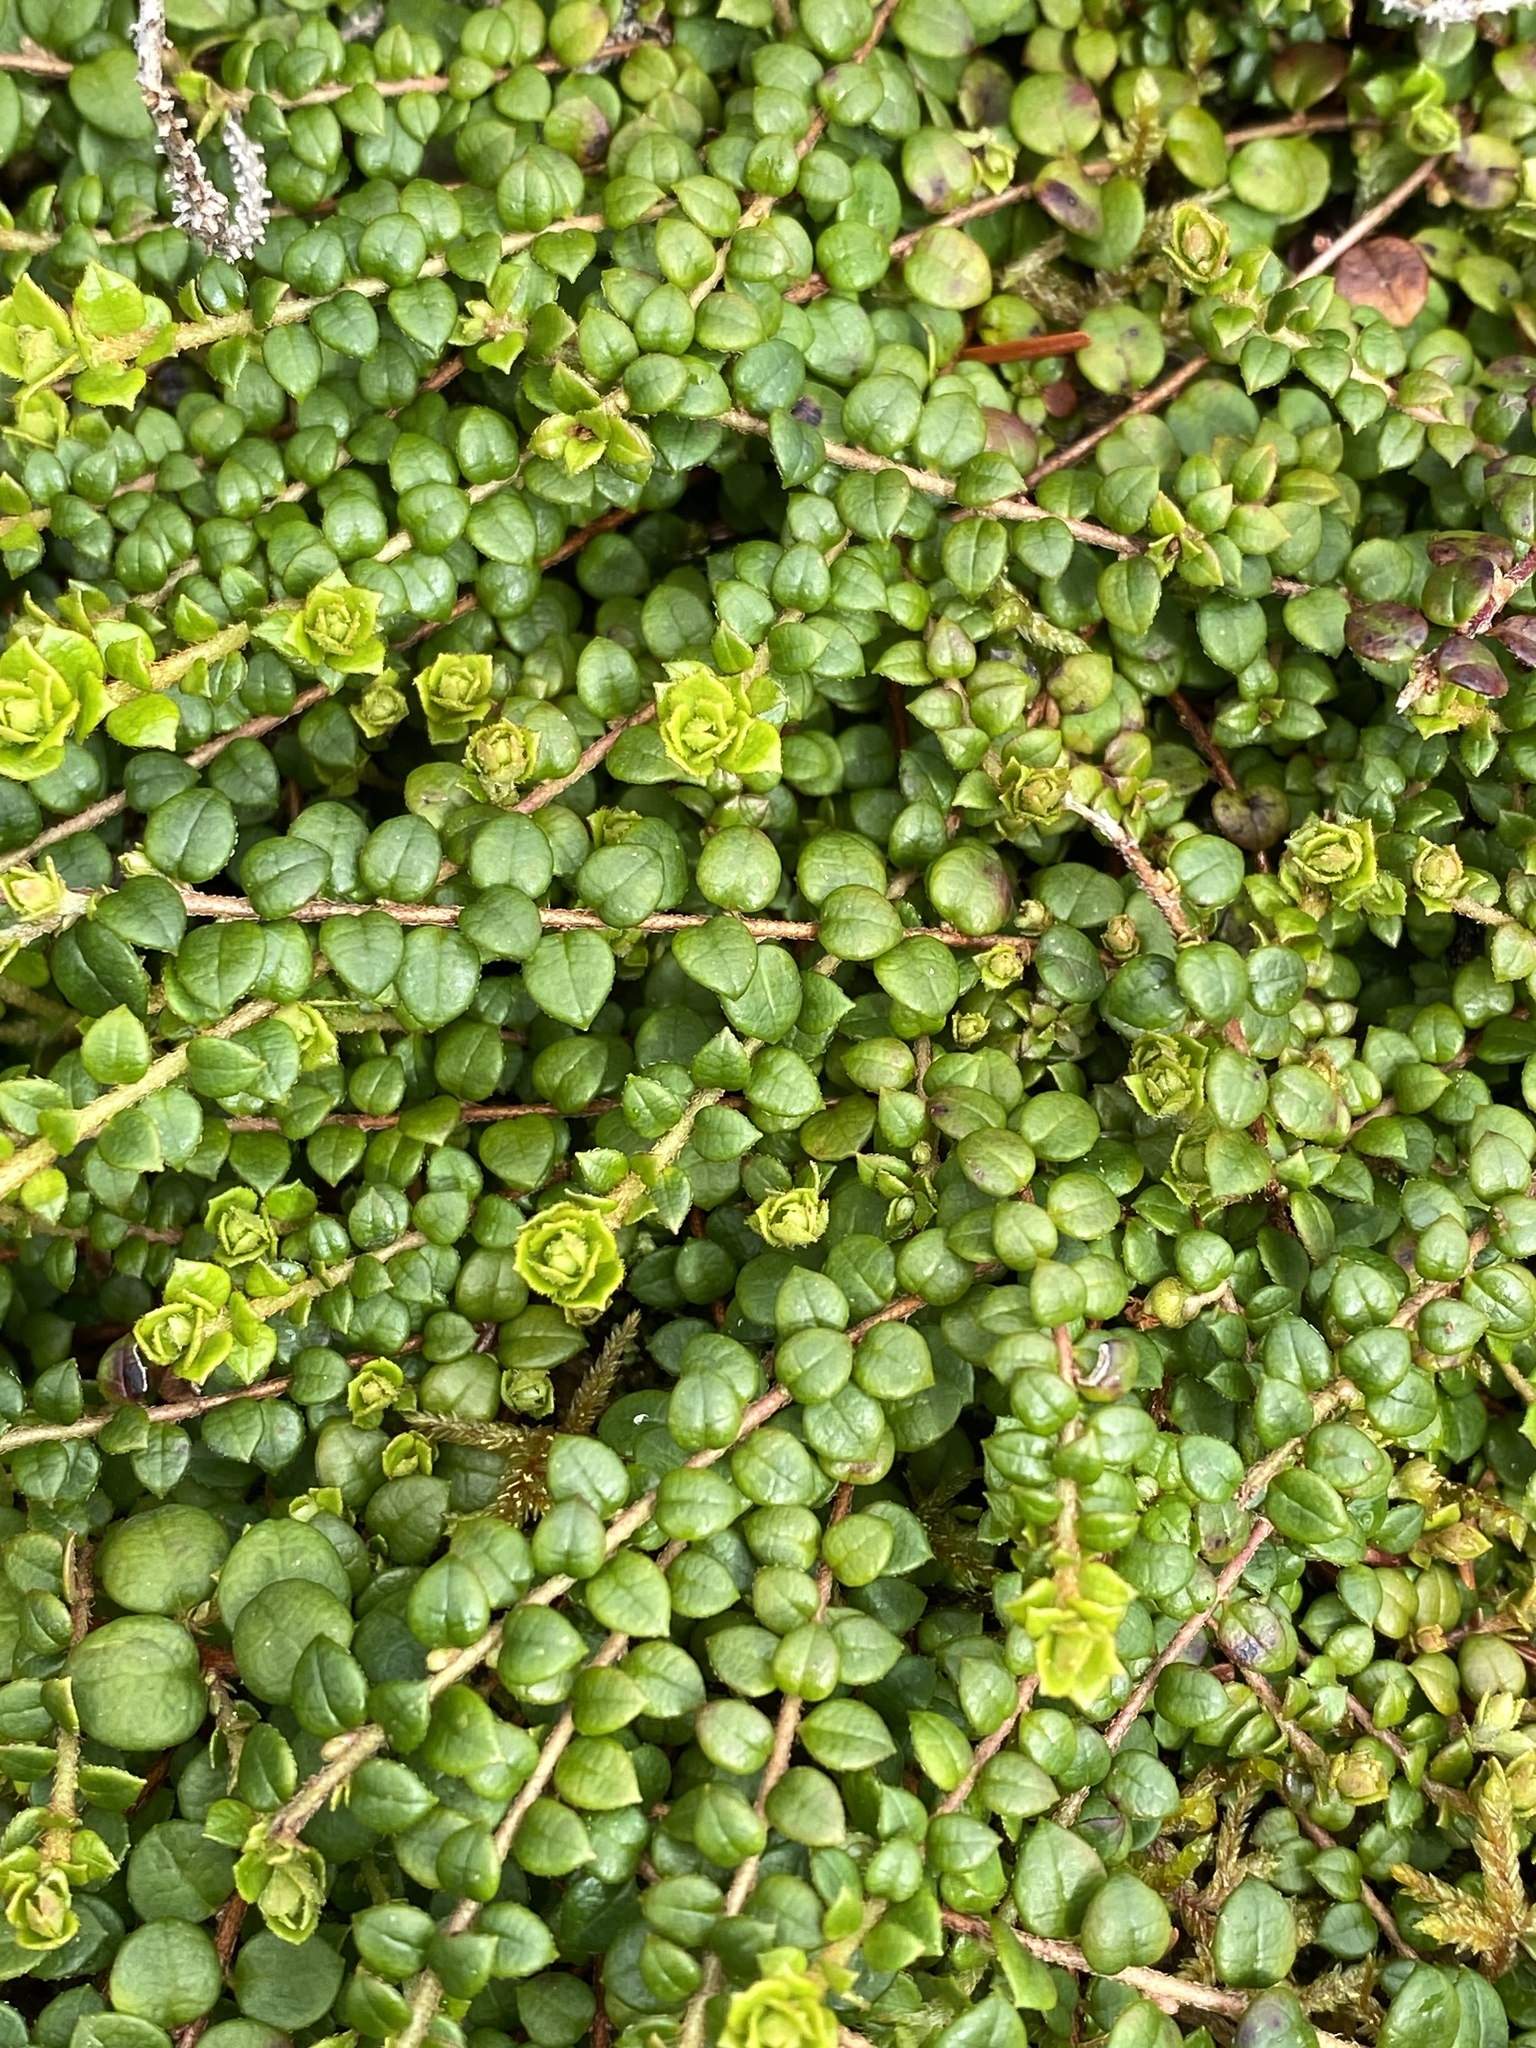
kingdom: Plantae
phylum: Tracheophyta
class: Magnoliopsida
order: Ericales
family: Ericaceae
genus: Gaultheria
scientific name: Gaultheria hispidula
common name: Cancer wintergreen
